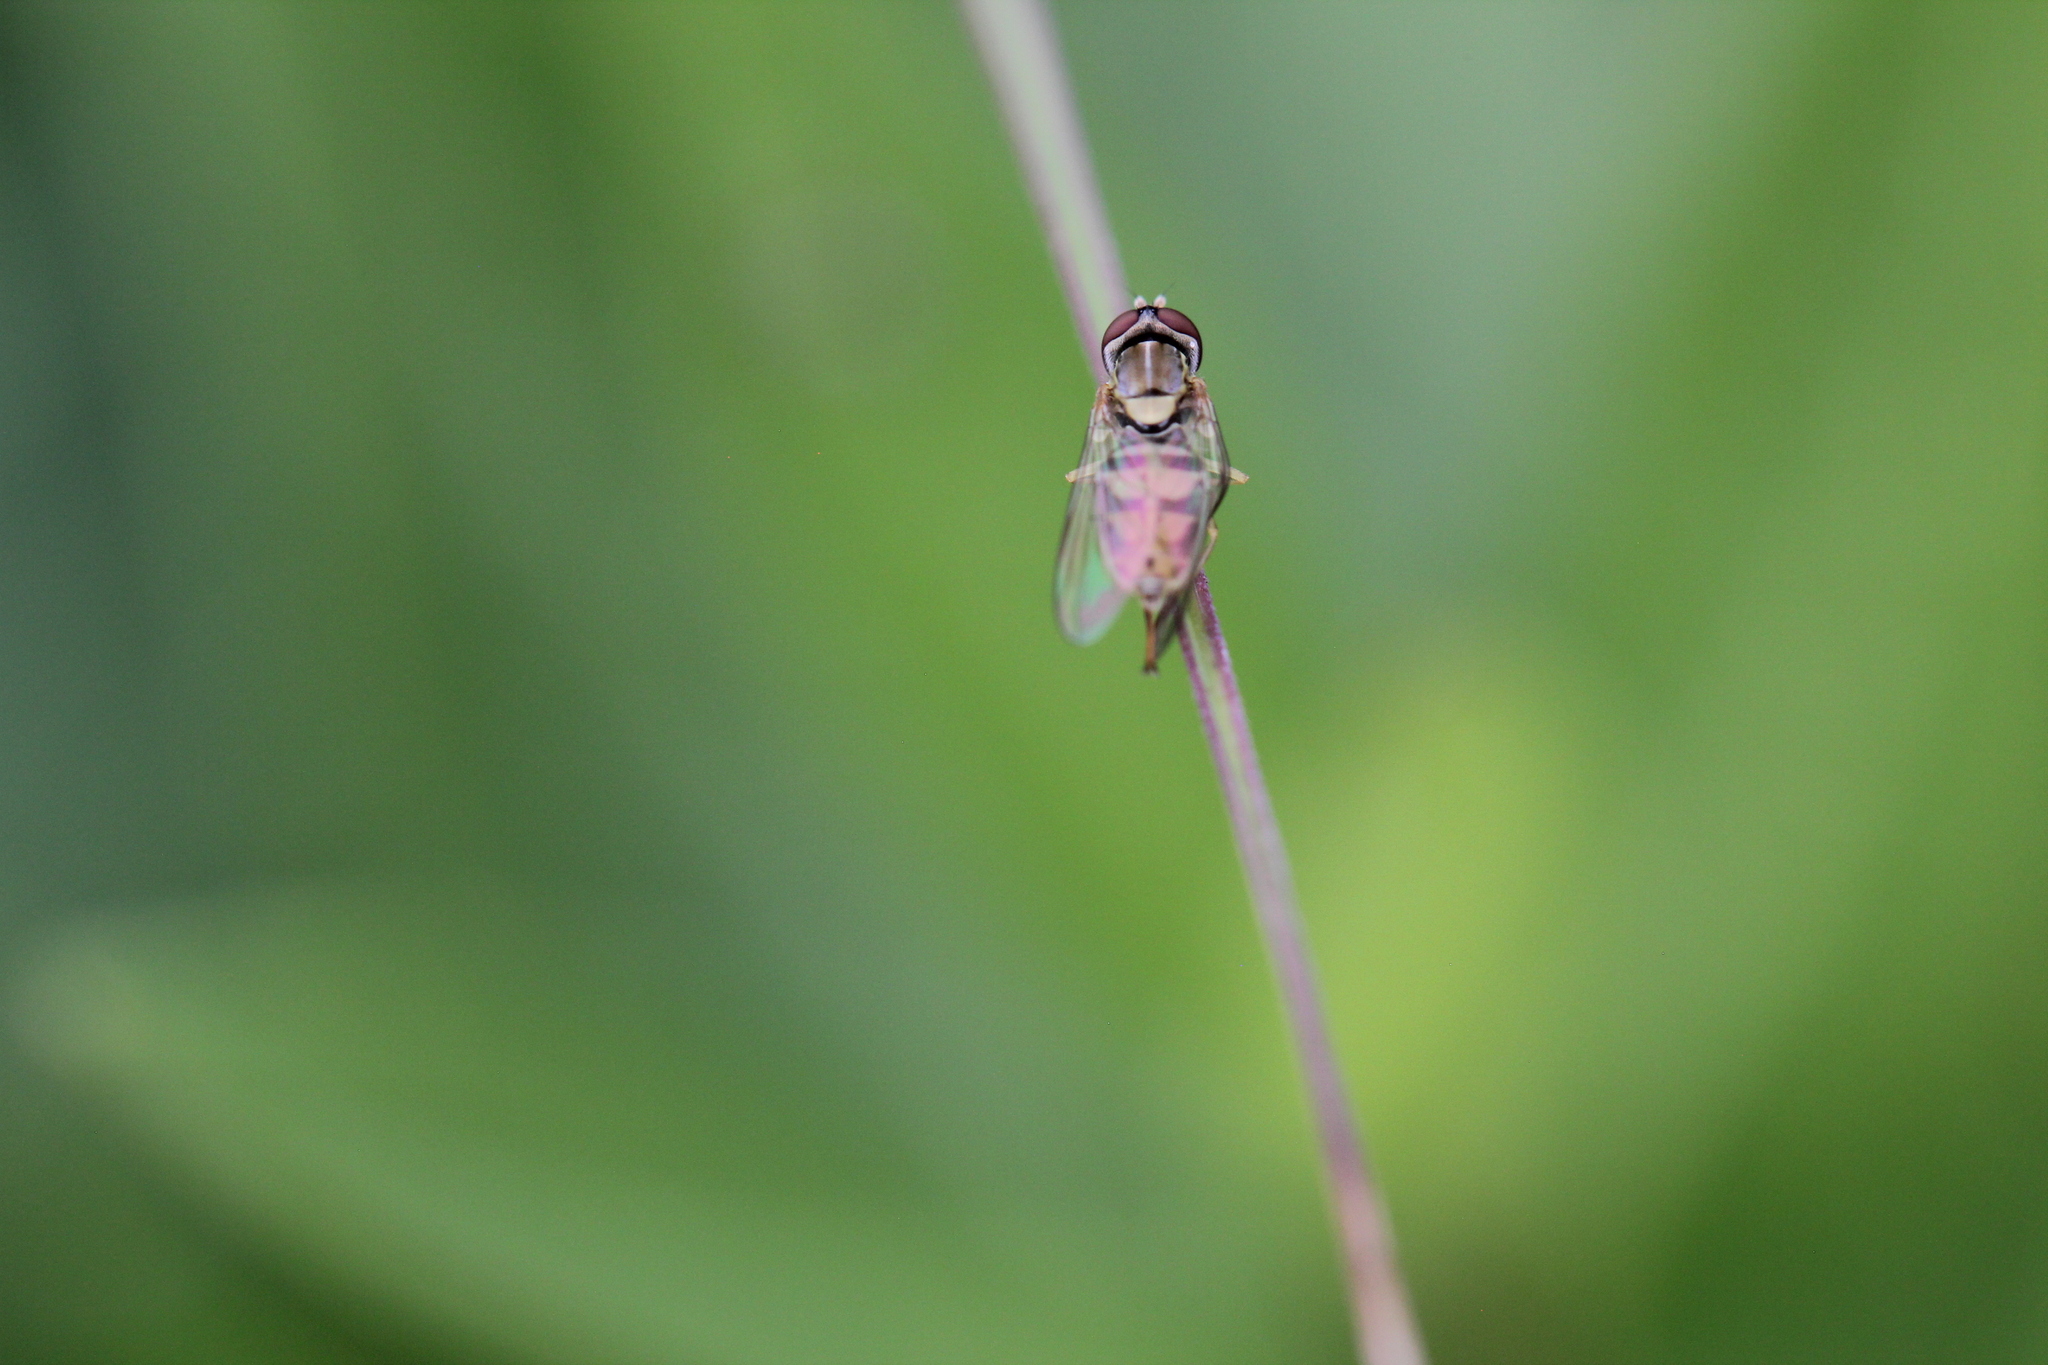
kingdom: Animalia
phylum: Arthropoda
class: Insecta
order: Diptera
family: Syrphidae
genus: Toxomerus
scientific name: Toxomerus marginatus
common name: Syrphid fly
